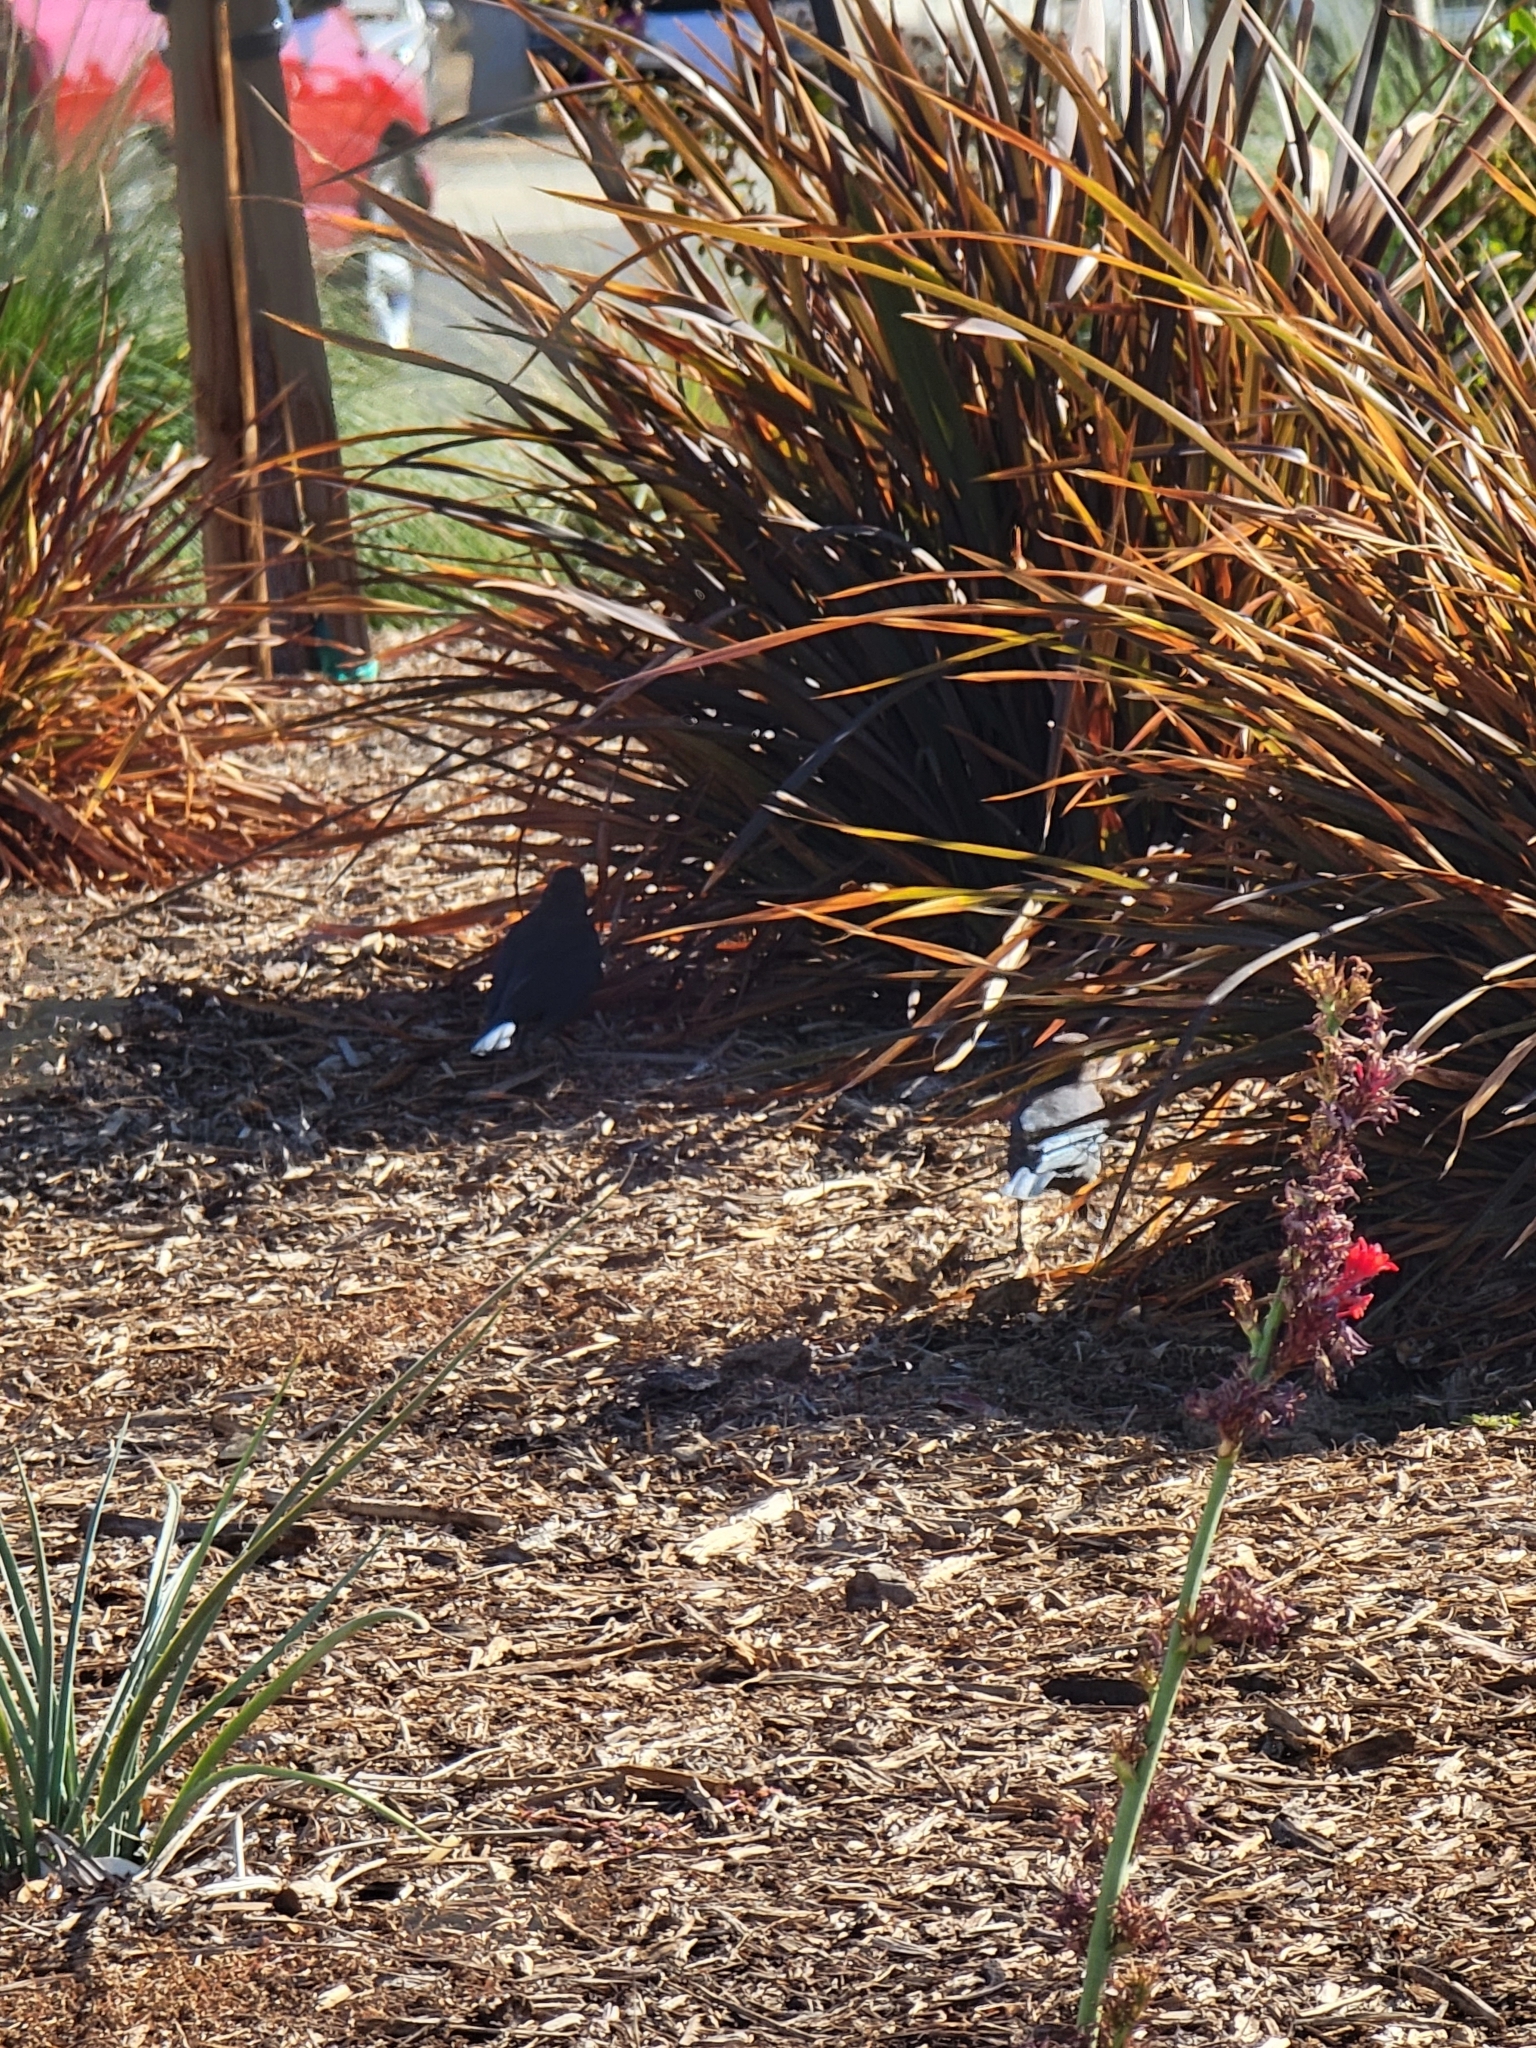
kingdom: Animalia
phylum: Chordata
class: Aves
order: Passeriformes
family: Icteridae
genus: Euphagus
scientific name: Euphagus cyanocephalus
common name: Brewer's blackbird
